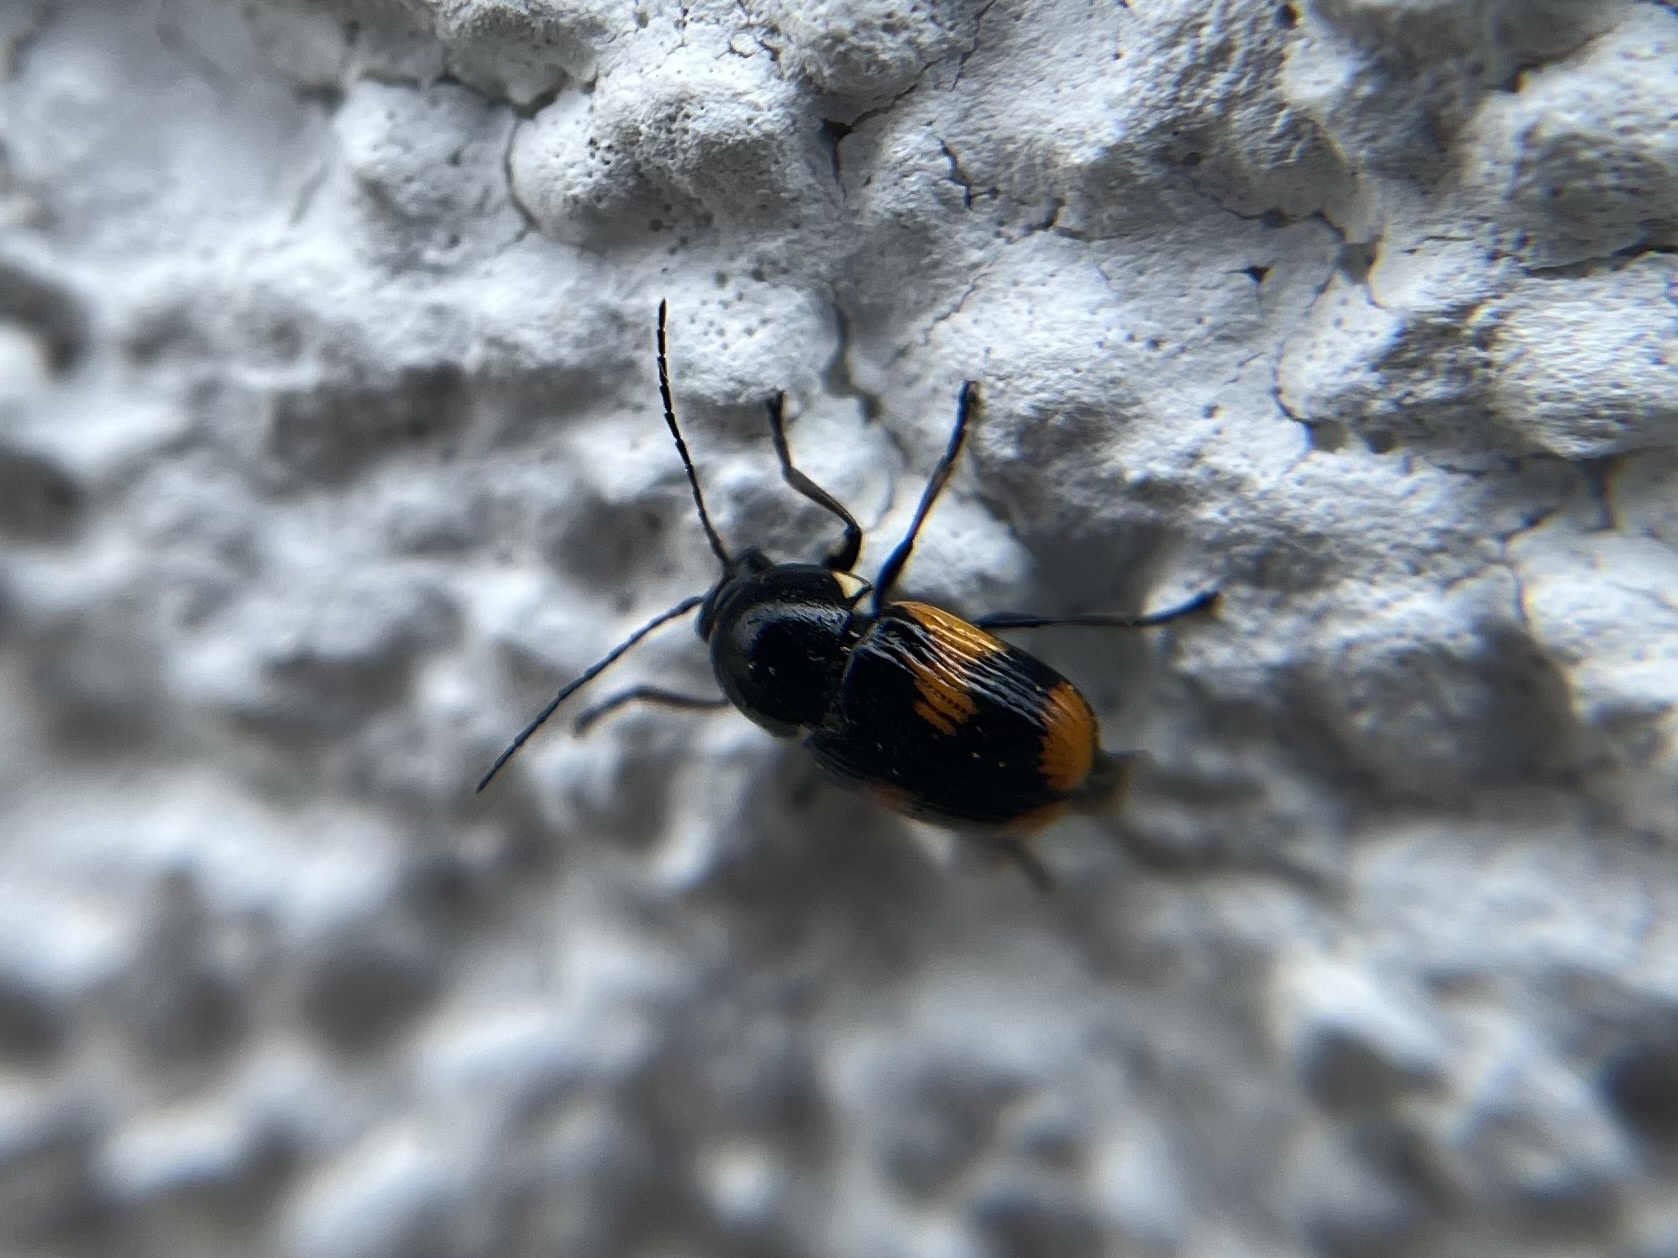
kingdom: Animalia
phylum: Arthropoda
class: Insecta
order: Coleoptera
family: Chrysomelidae
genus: Cryptocephalus
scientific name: Cryptocephalus moraei
